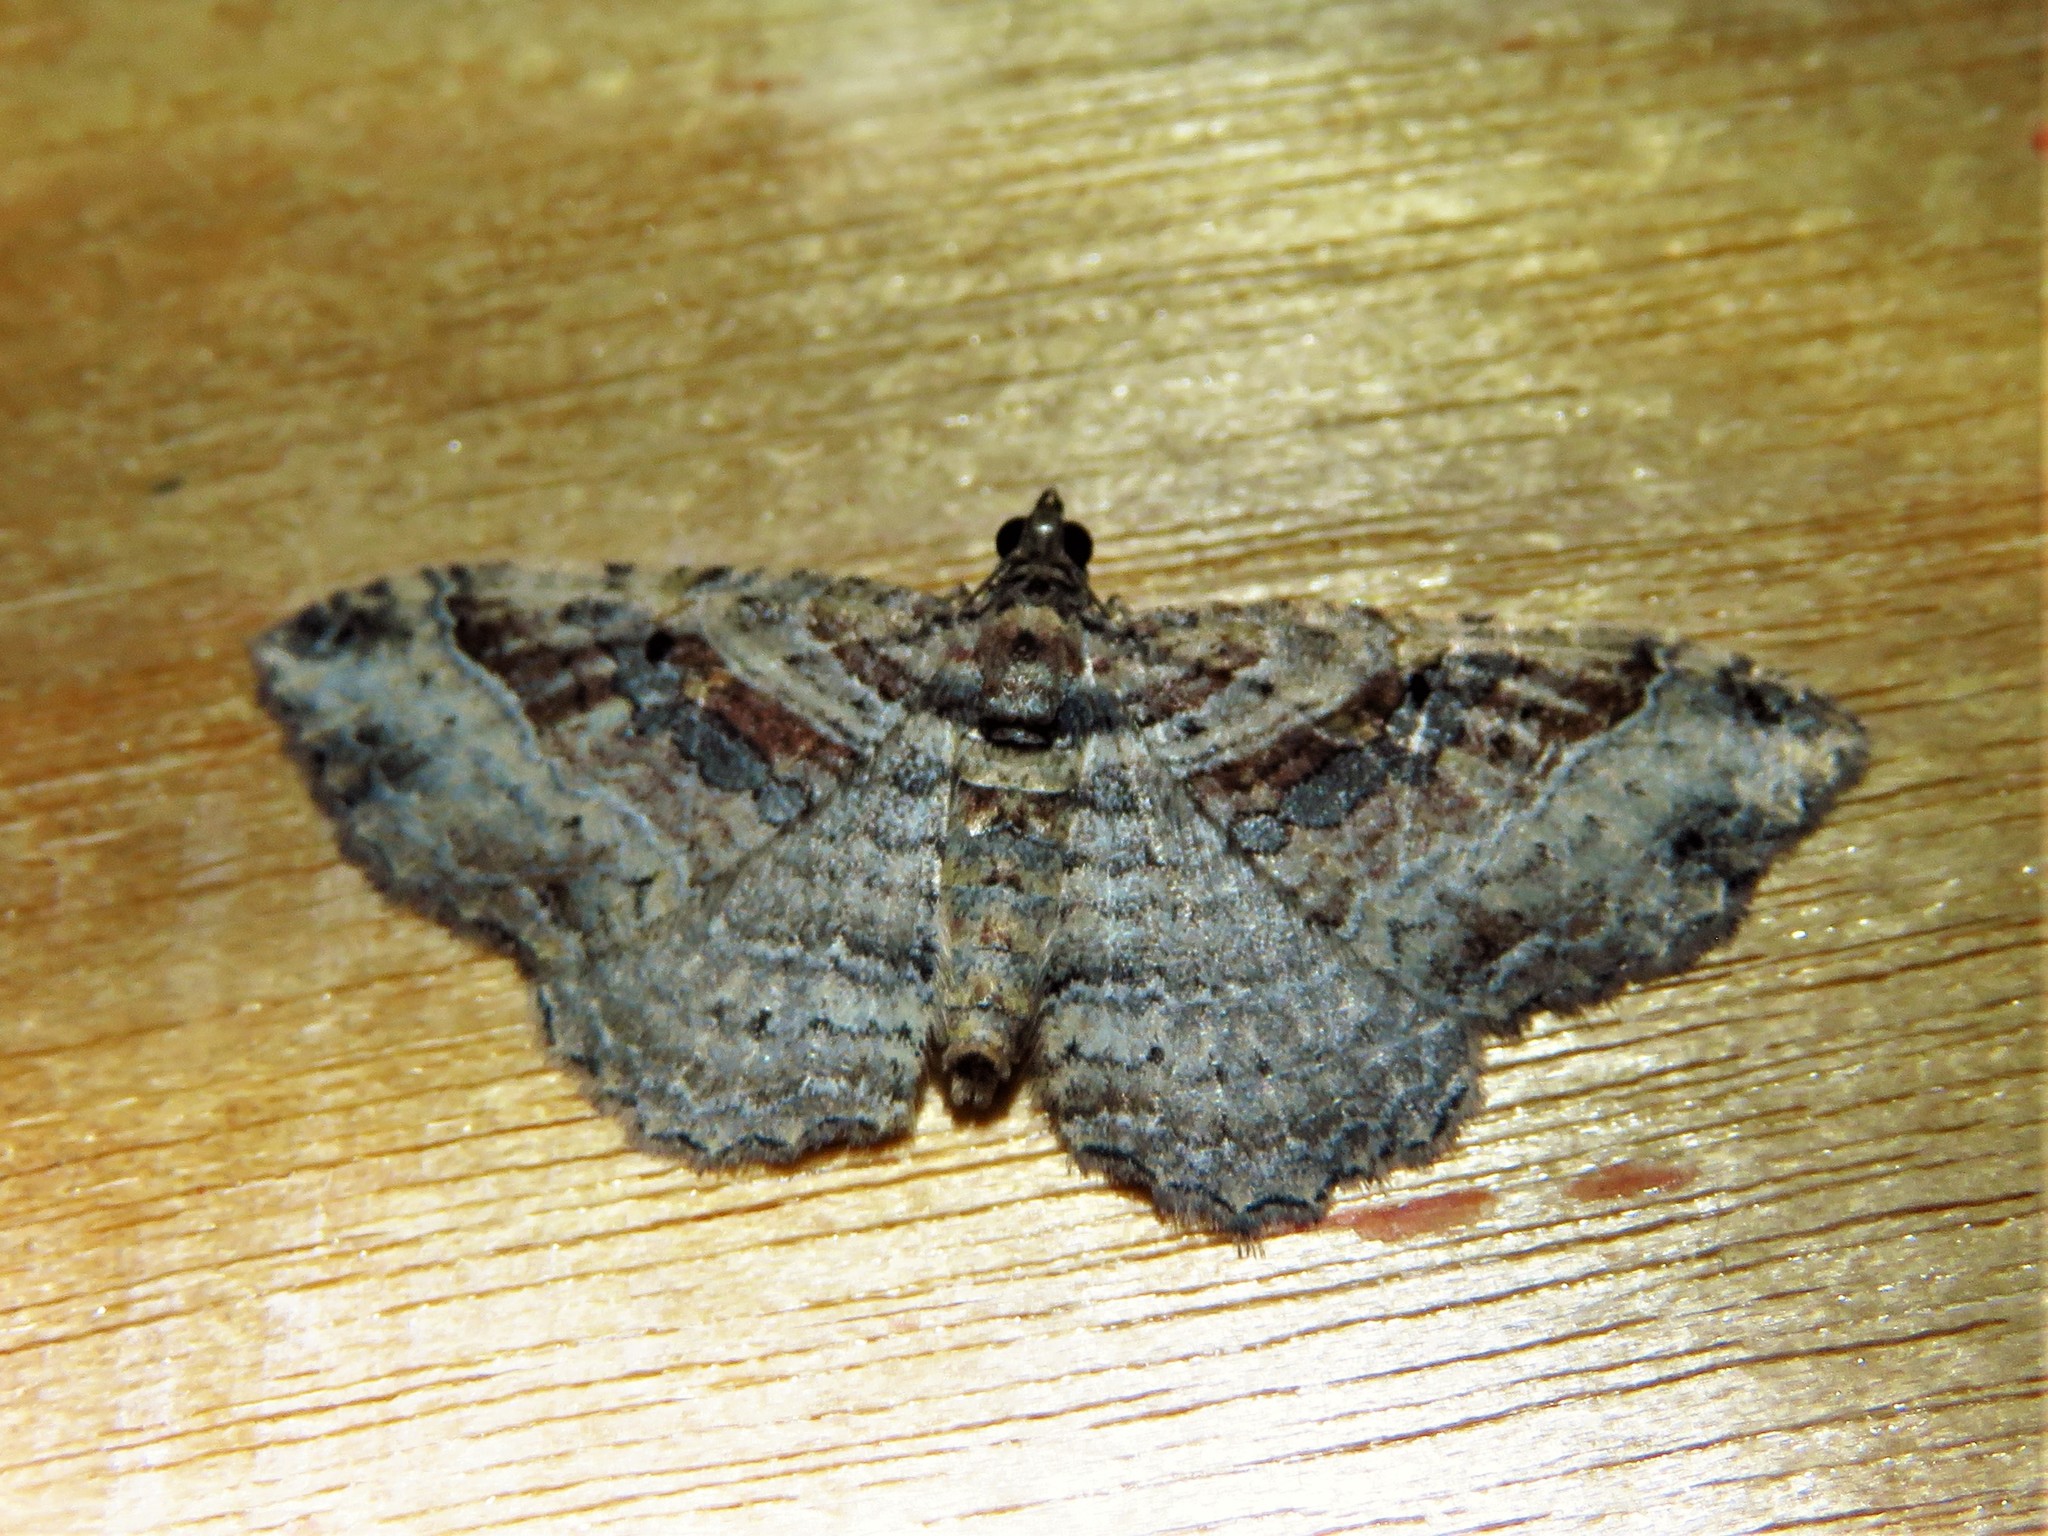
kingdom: Animalia
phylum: Arthropoda
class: Insecta
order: Lepidoptera
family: Geometridae
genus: Costaconvexa
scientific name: Costaconvexa centrostrigaria
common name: Bent-line carpet
